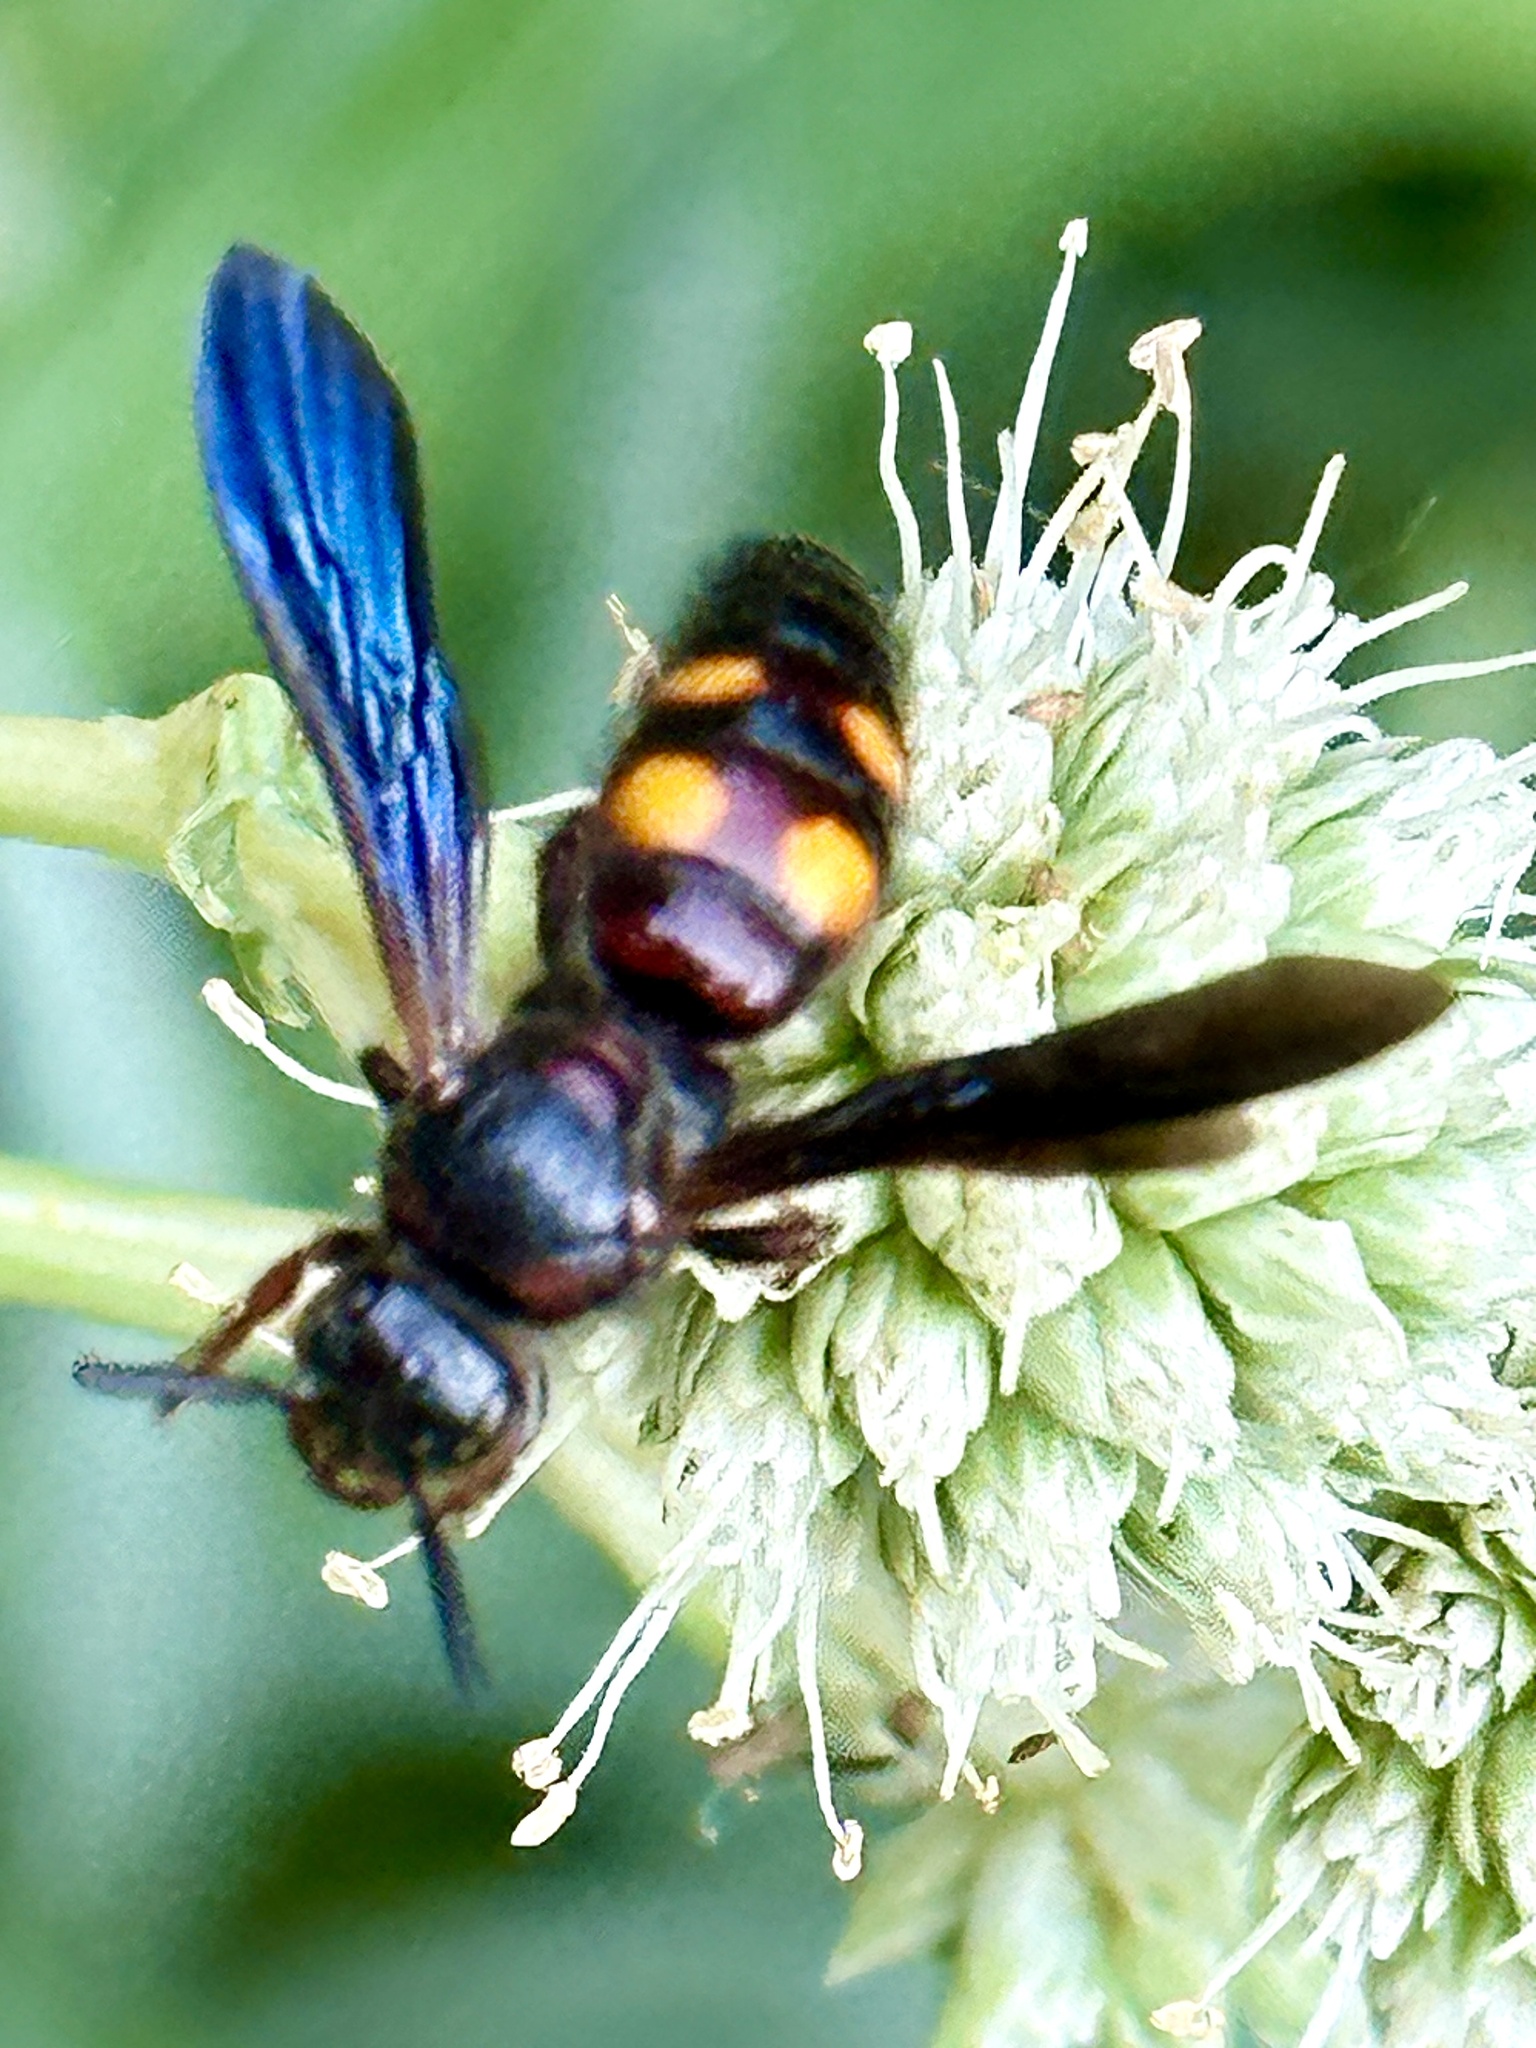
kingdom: Animalia
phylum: Arthropoda
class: Insecta
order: Hymenoptera
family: Scoliidae
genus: Scolia
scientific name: Scolia nobilitata
